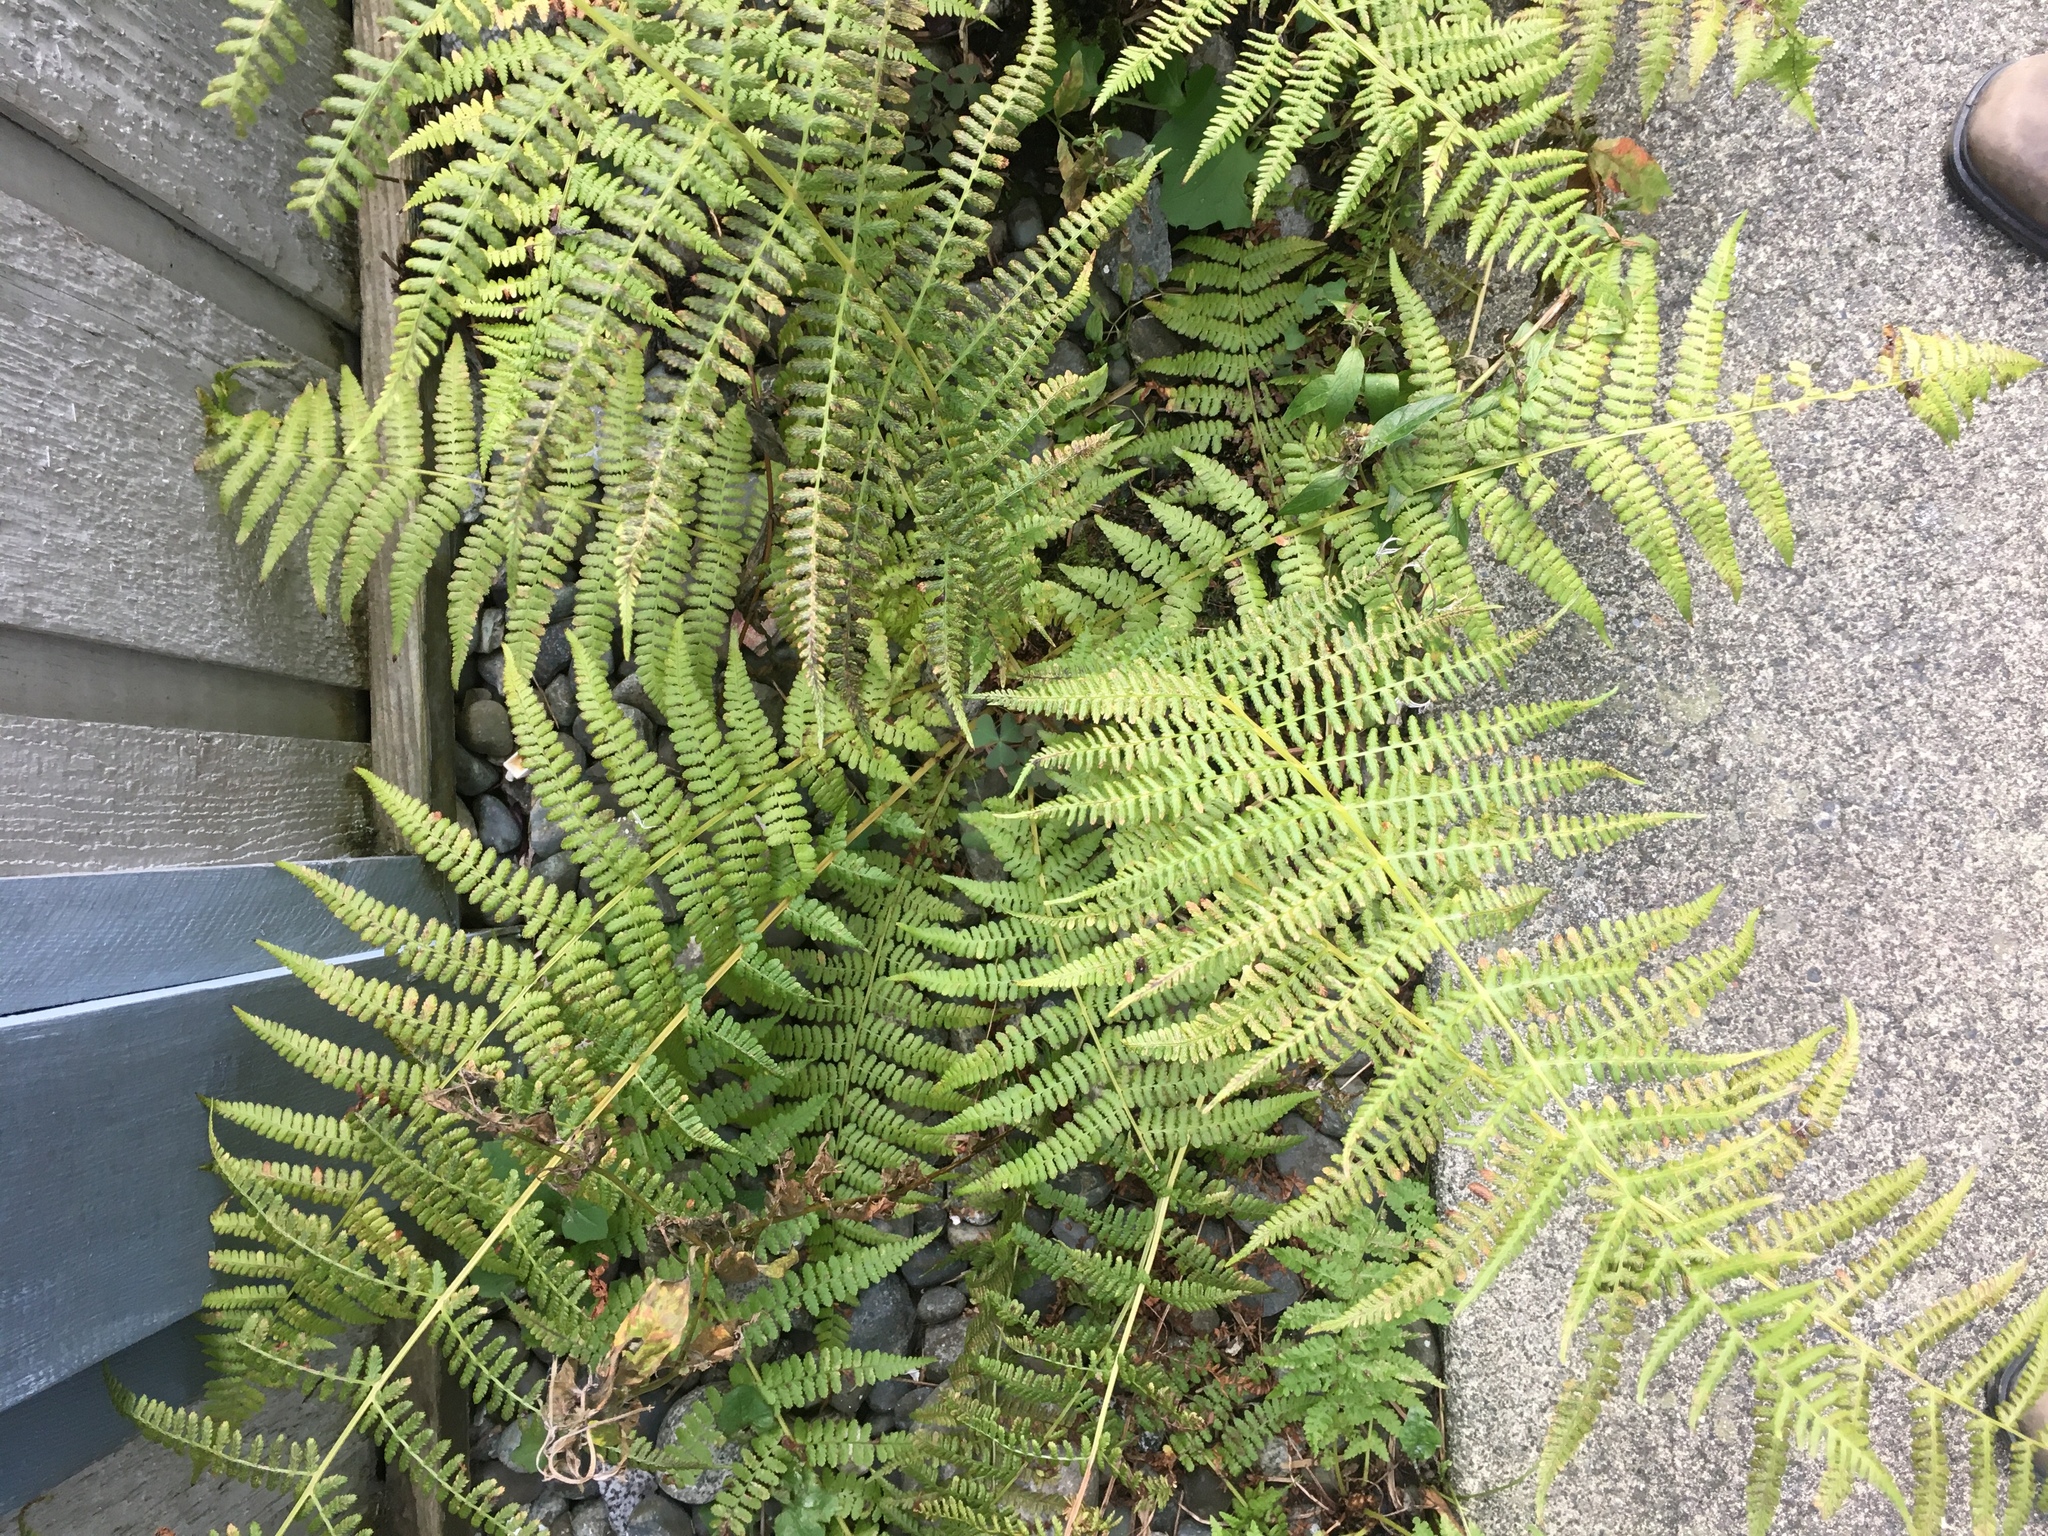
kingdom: Plantae
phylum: Tracheophyta
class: Polypodiopsida
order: Polypodiales
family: Athyriaceae
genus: Athyrium
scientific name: Athyrium filix-femina
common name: Lady fern
